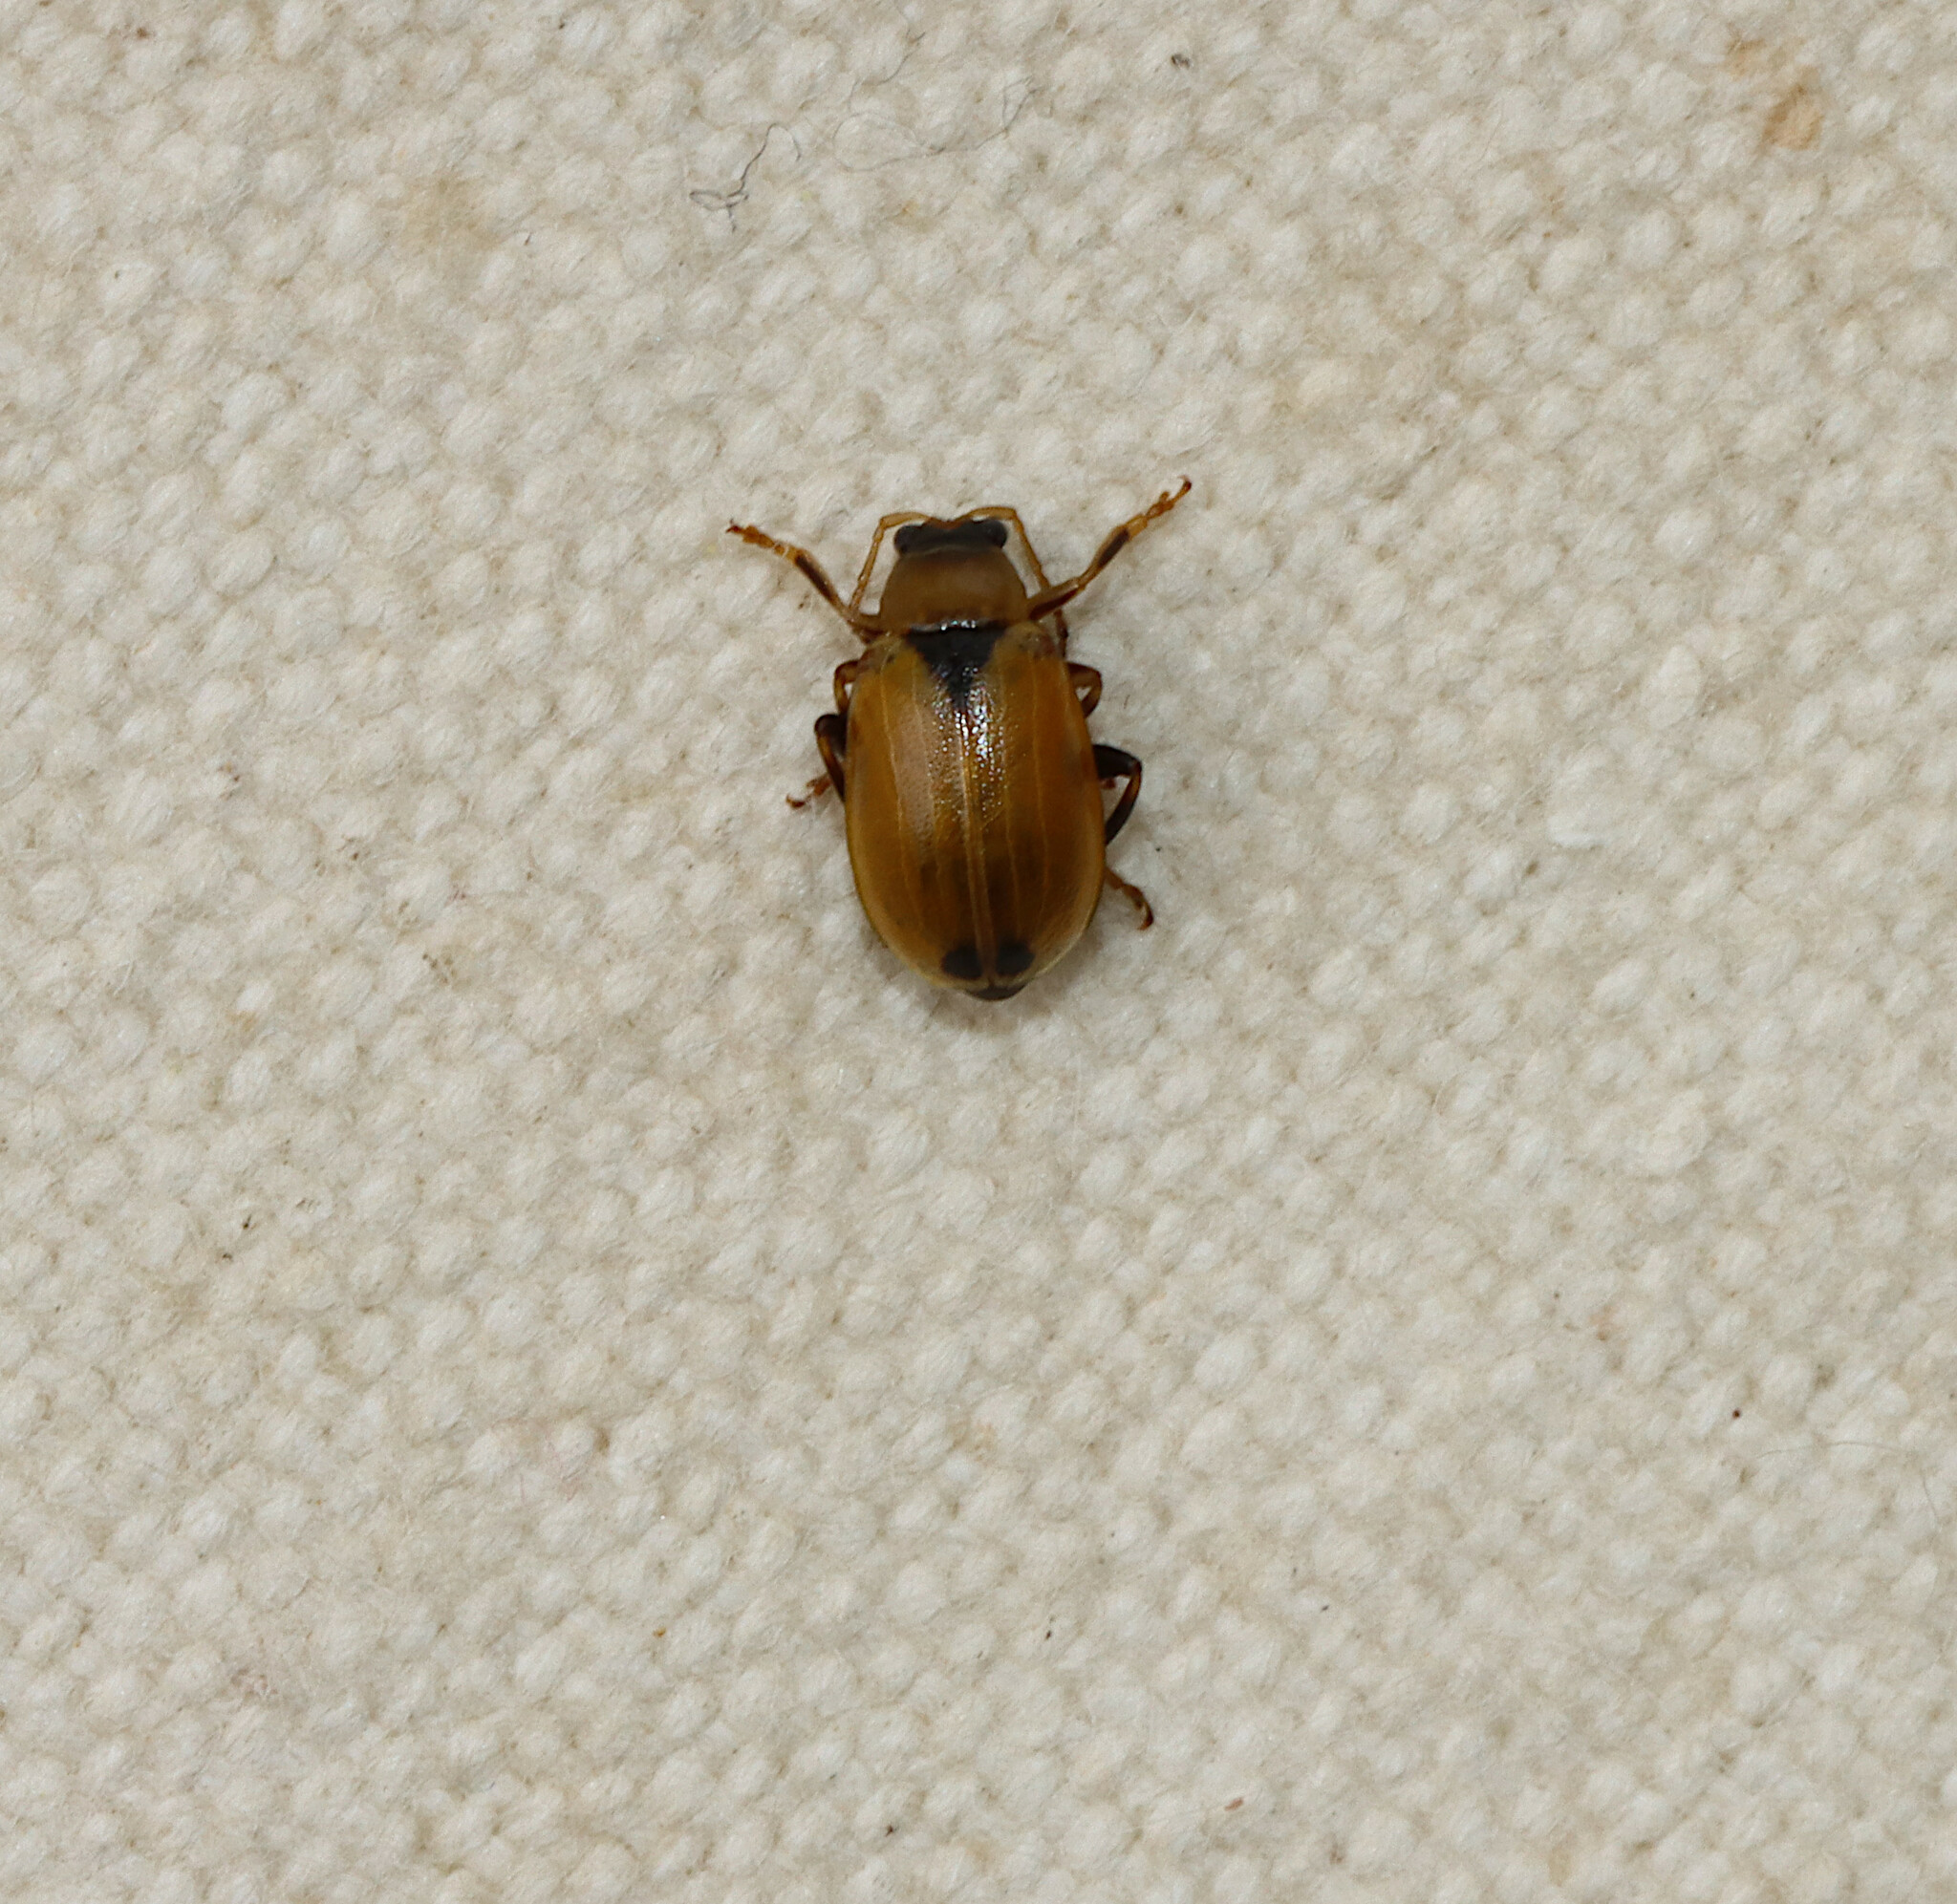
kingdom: Animalia
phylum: Arthropoda
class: Insecta
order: Coleoptera
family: Chrysomelidae
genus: Cerotoma
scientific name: Cerotoma trifurcata
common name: Bean leaf beetle
